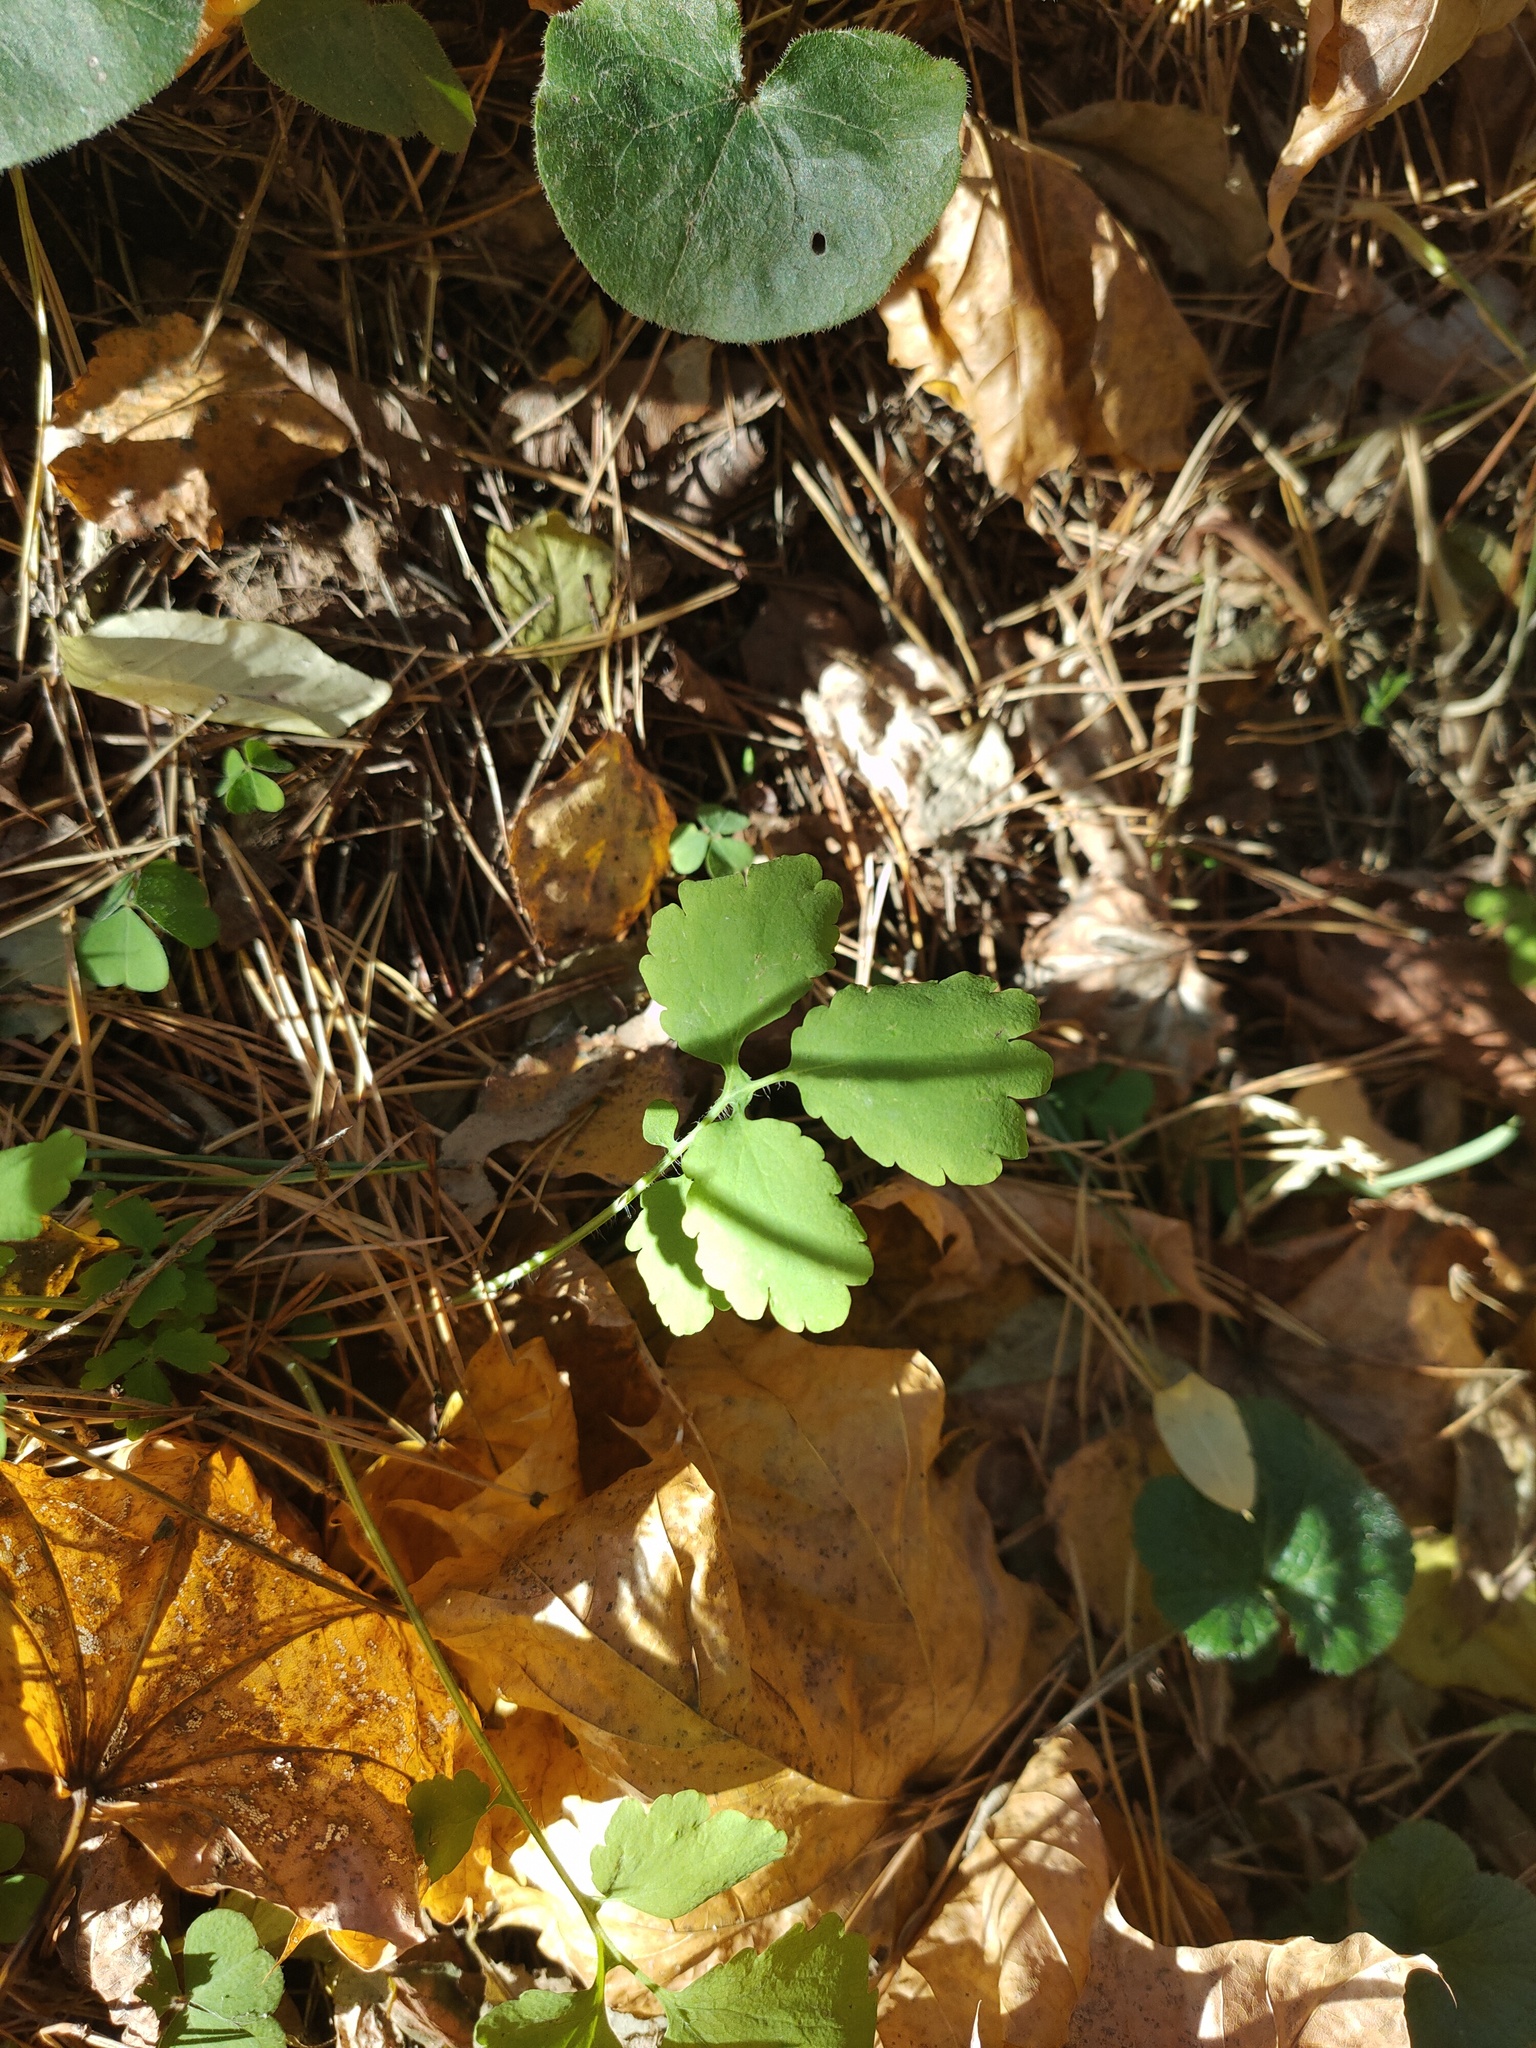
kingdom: Plantae
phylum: Tracheophyta
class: Magnoliopsida
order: Ranunculales
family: Papaveraceae
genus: Chelidonium
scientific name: Chelidonium majus
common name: Greater celandine
